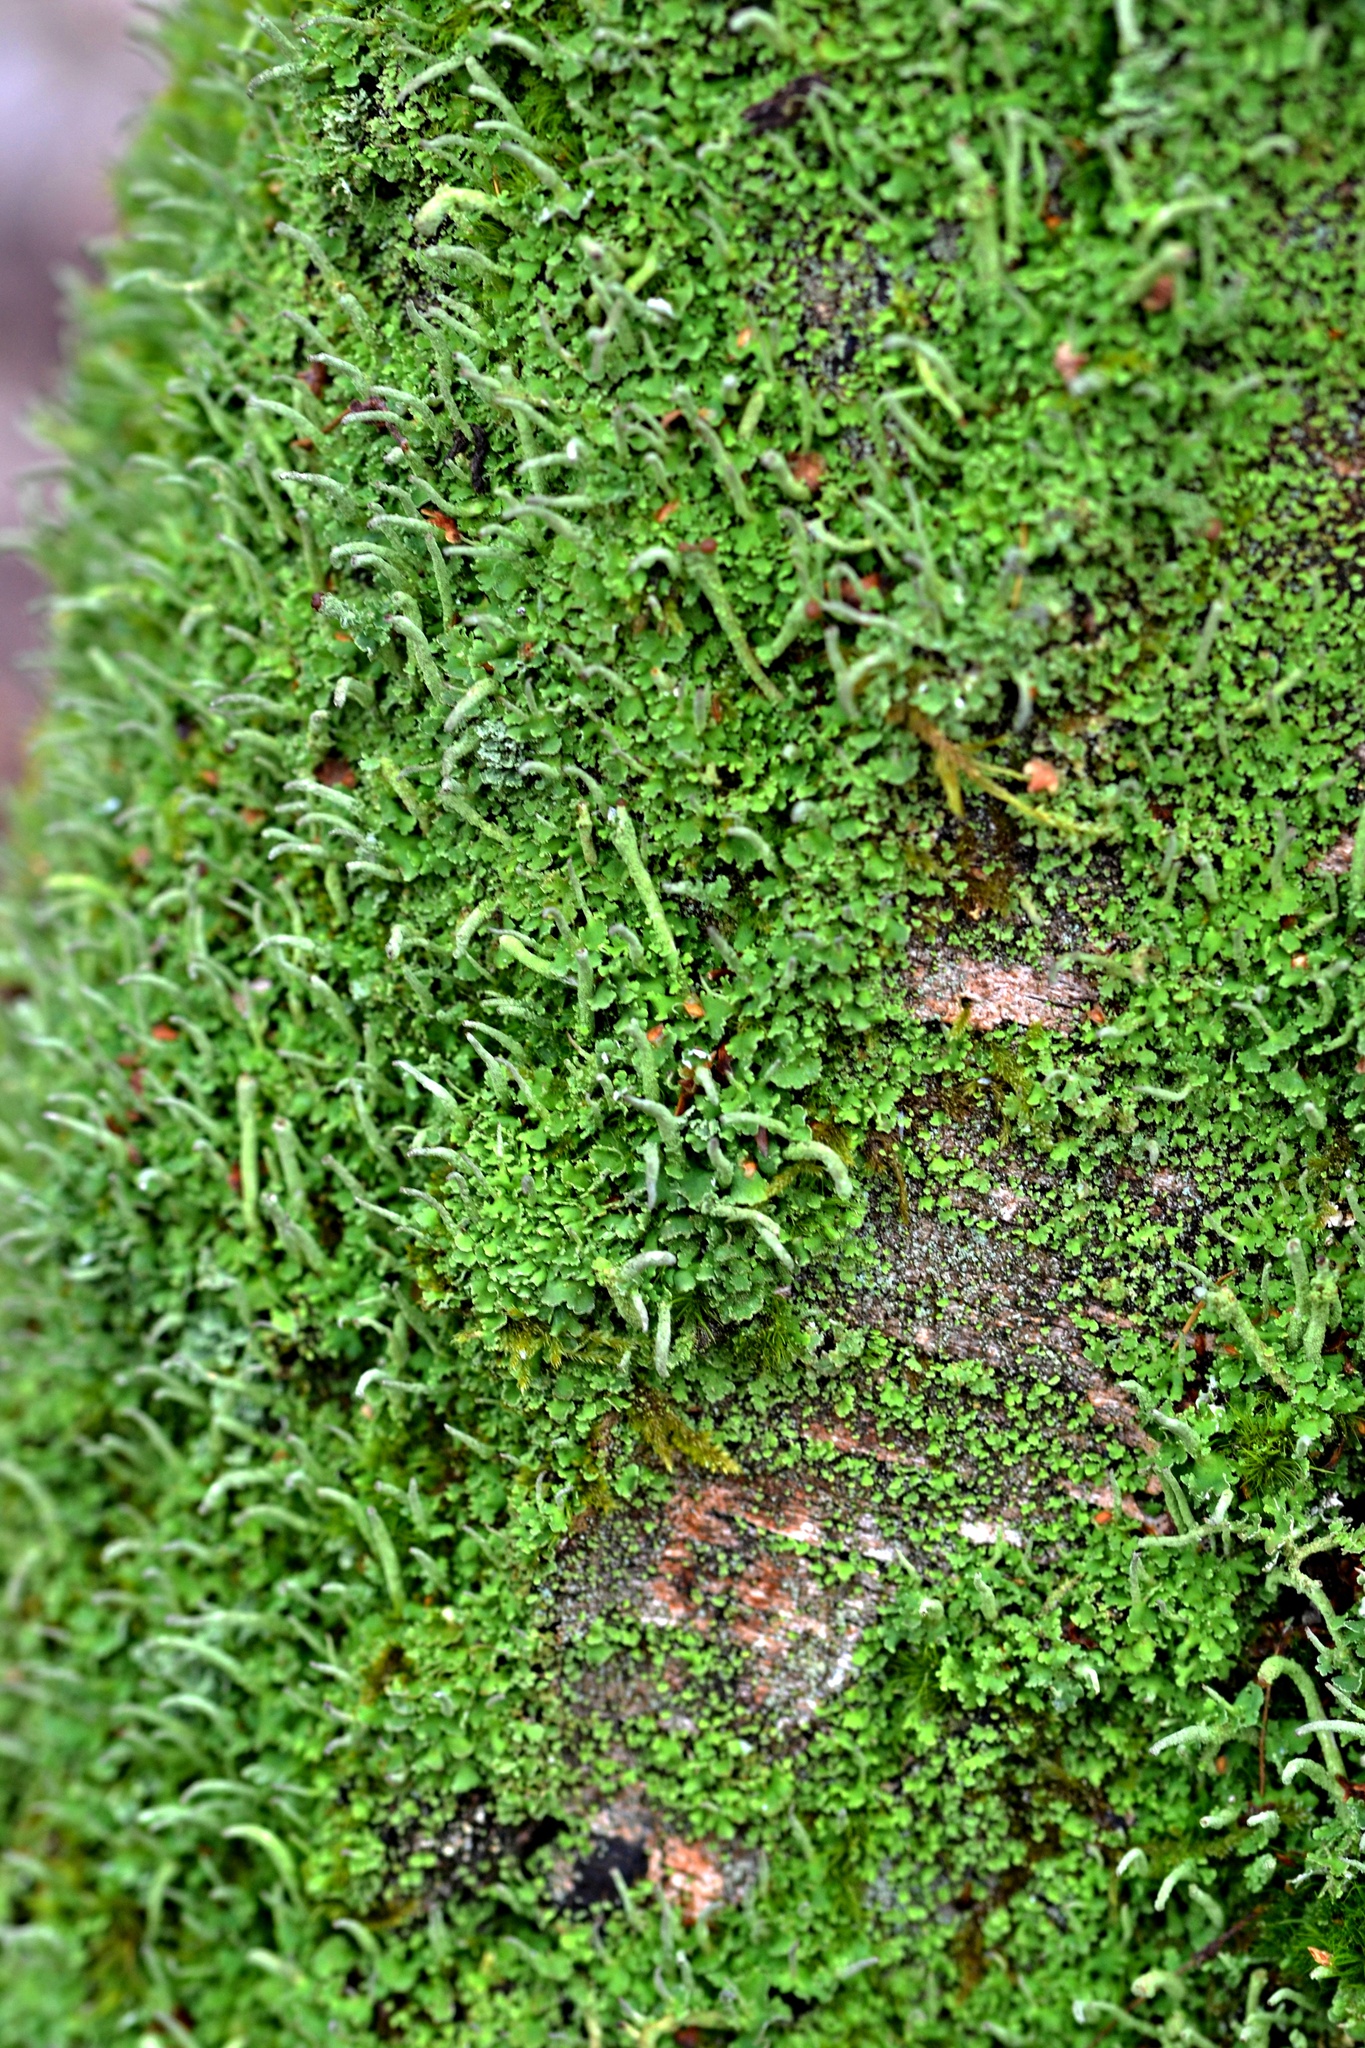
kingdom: Fungi
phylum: Ascomycota
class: Lecanoromycetes
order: Lecanorales
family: Cladoniaceae
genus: Cladonia
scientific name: Cladonia coniocraea
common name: Common powderhorn
